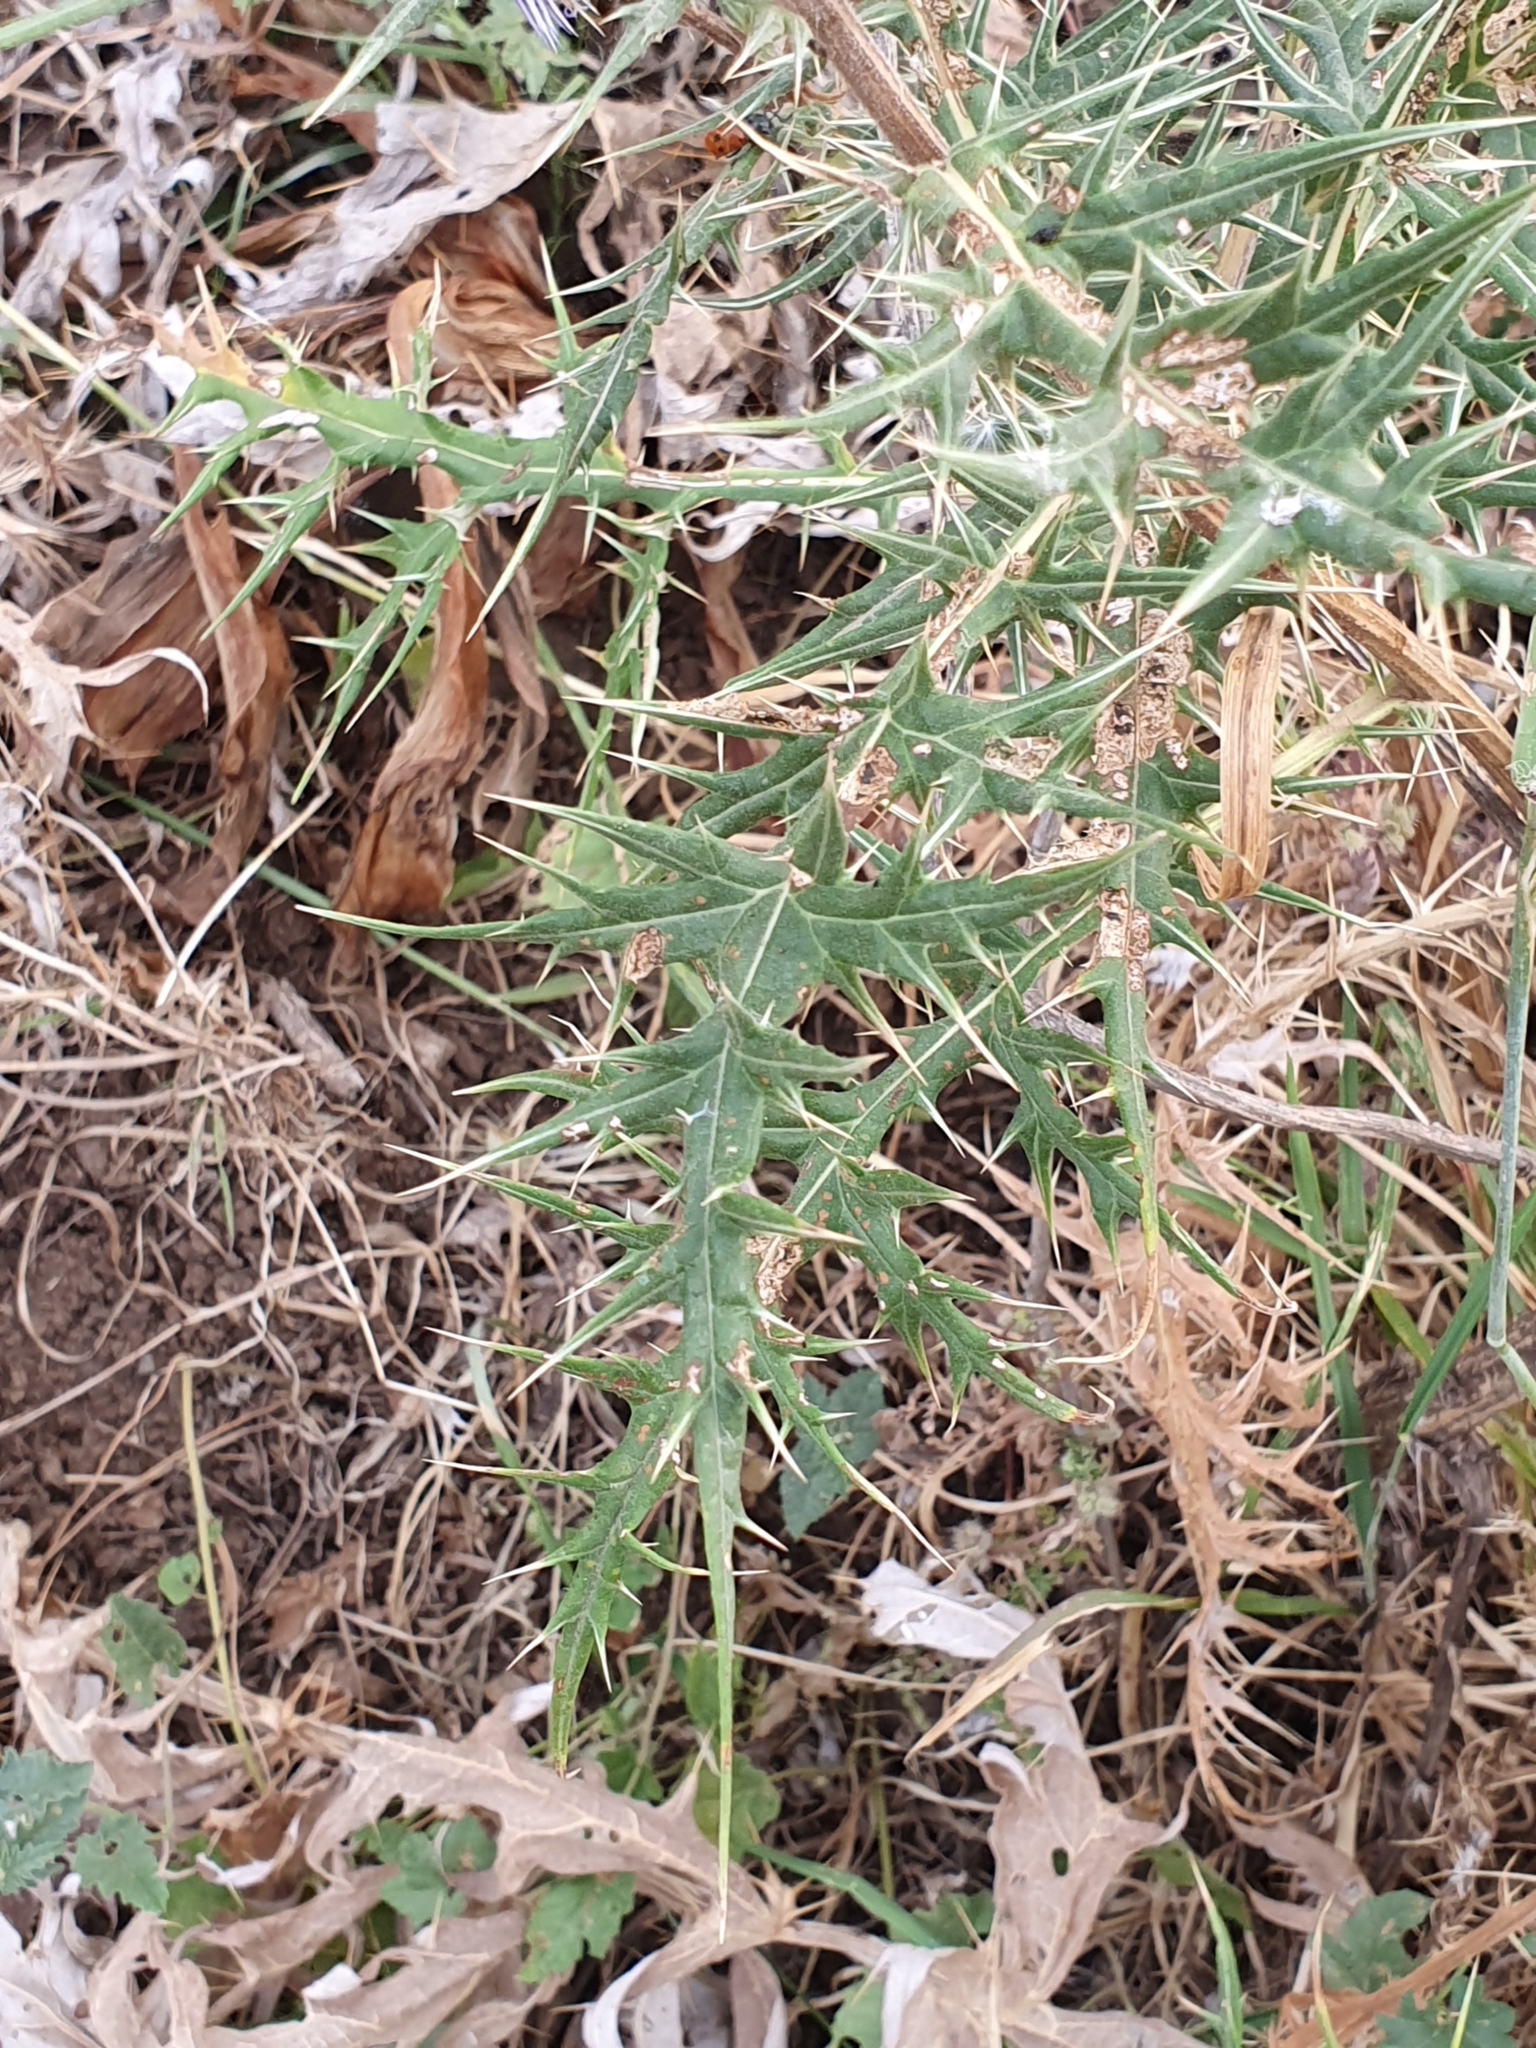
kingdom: Plantae
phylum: Tracheophyta
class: Magnoliopsida
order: Asterales
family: Asteraceae
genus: Echinops
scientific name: Echinops bovei
